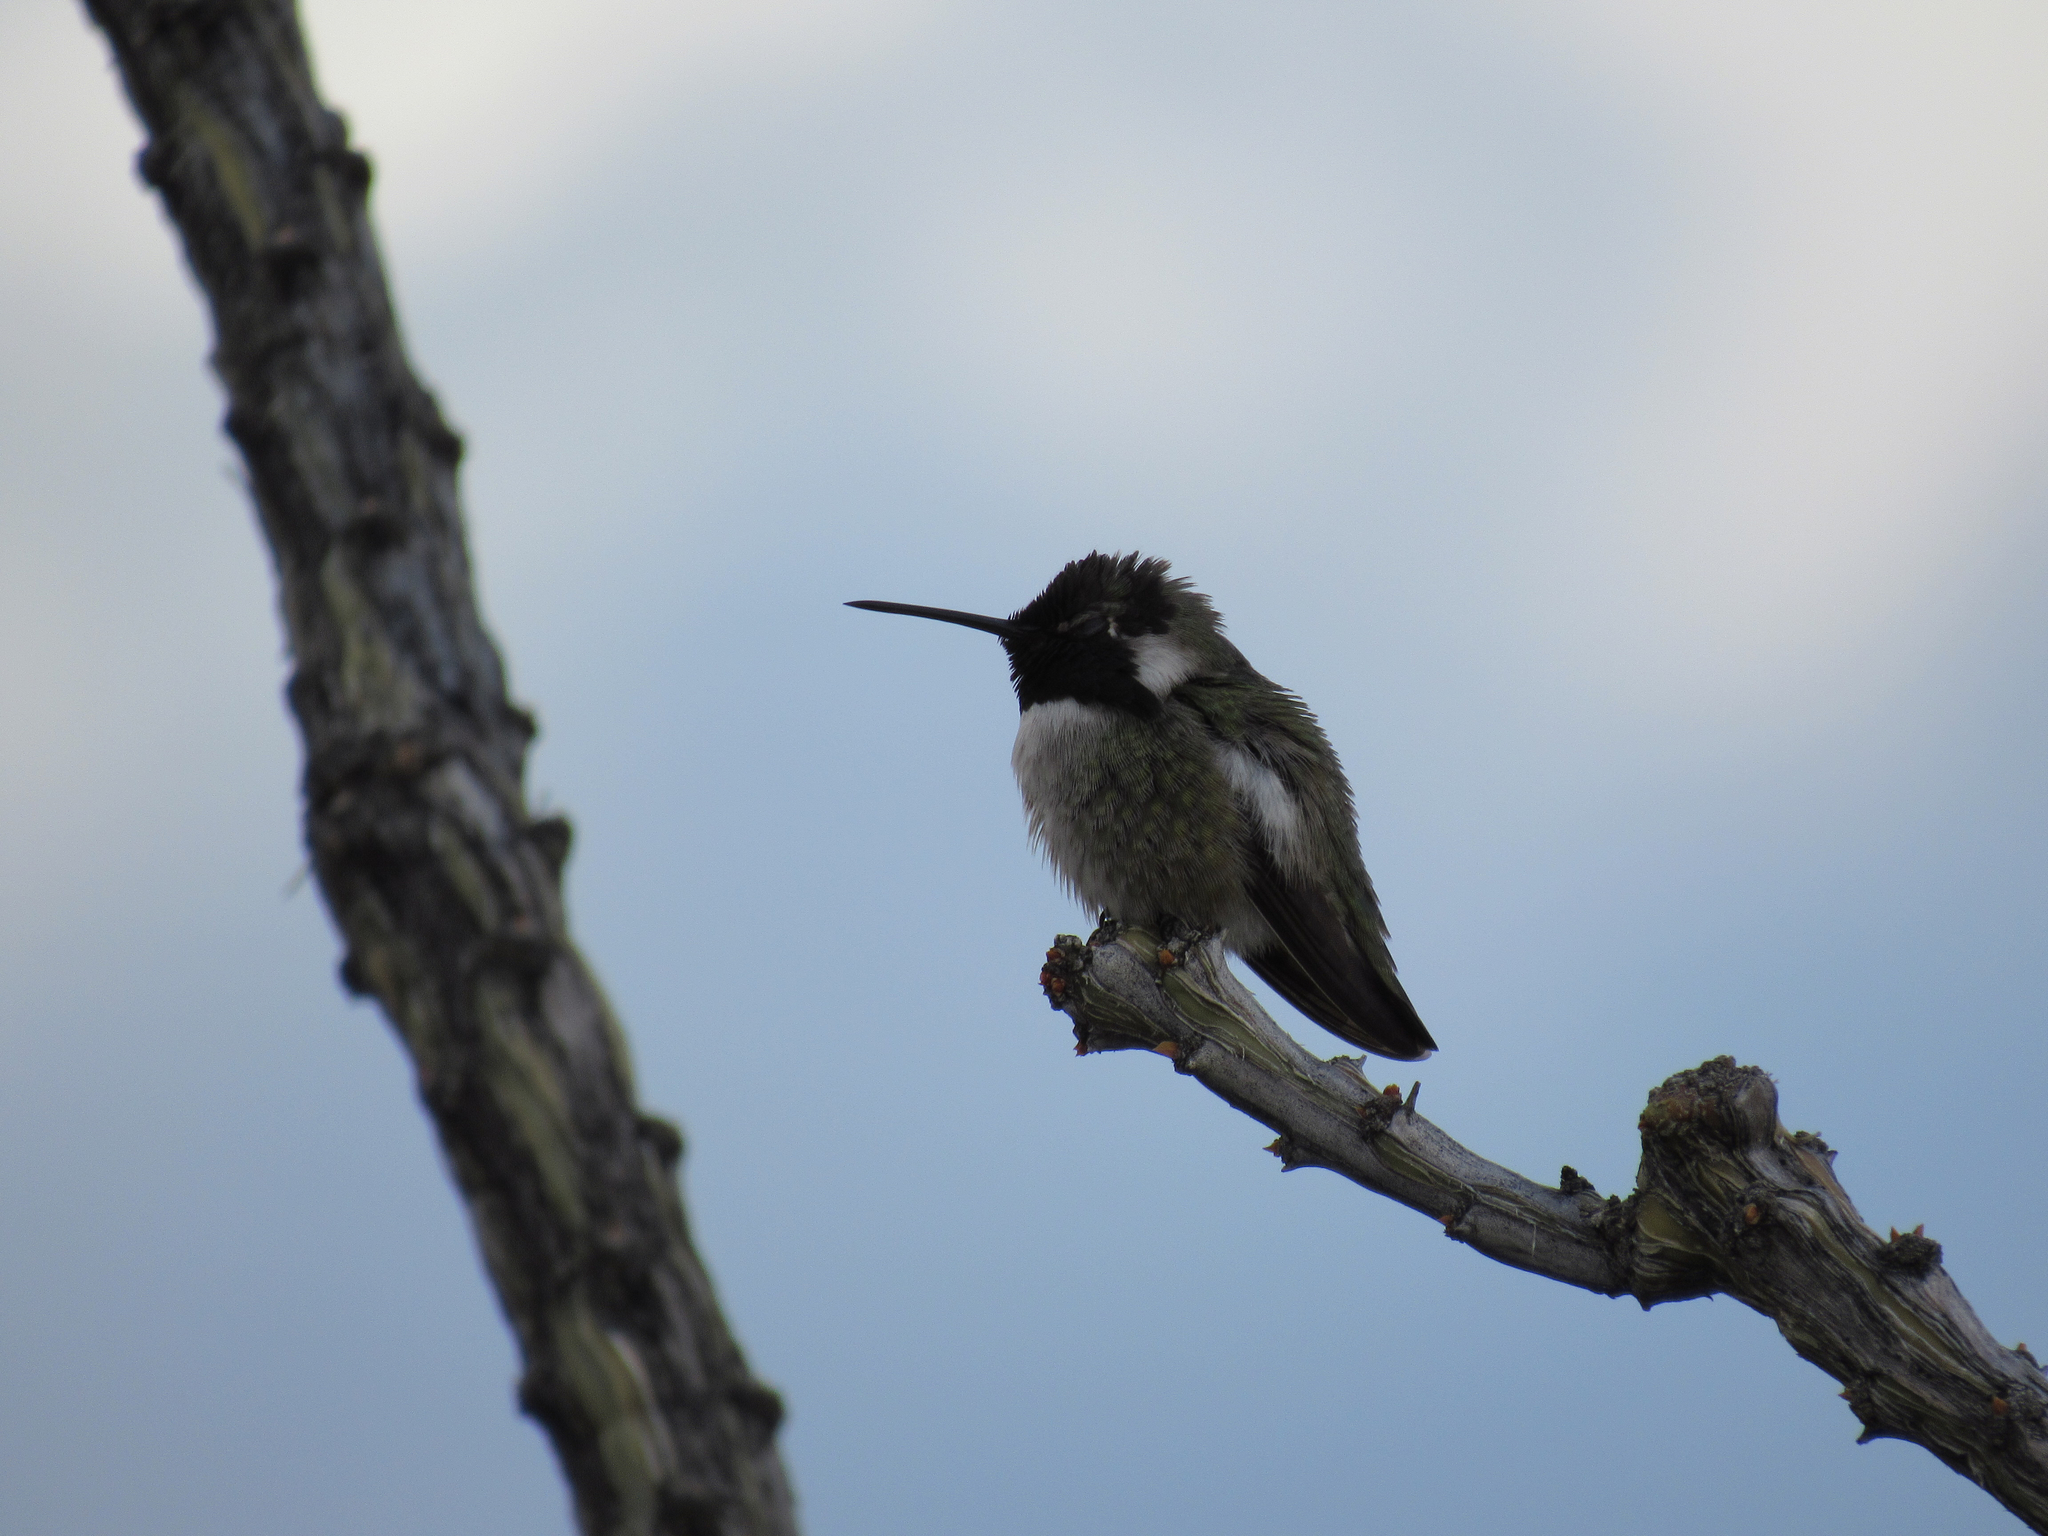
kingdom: Animalia
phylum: Chordata
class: Aves
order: Apodiformes
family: Trochilidae
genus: Calypte
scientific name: Calypte costae
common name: Costa's hummingbird
